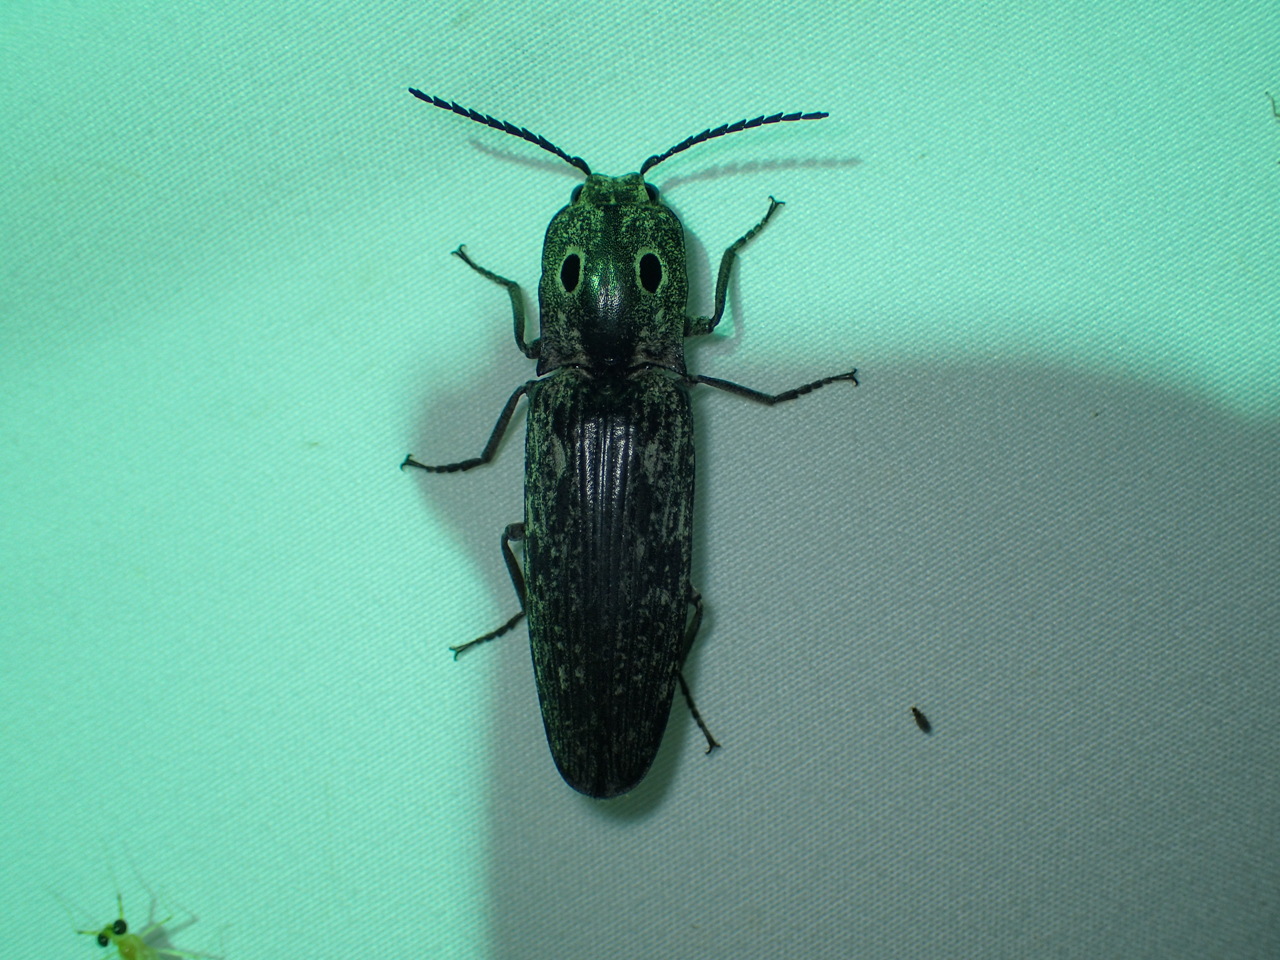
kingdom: Animalia
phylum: Arthropoda
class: Insecta
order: Coleoptera
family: Elateridae
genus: Alaus
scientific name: Alaus myops
